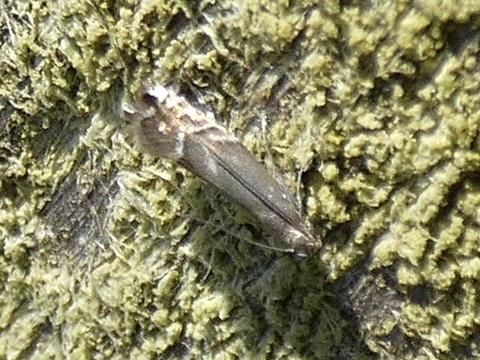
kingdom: Animalia
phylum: Arthropoda
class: Insecta
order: Lepidoptera
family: Glyphipterigidae
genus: Glyphipterix
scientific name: Glyphipterix simpliciella
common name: Cocksfoot moth
